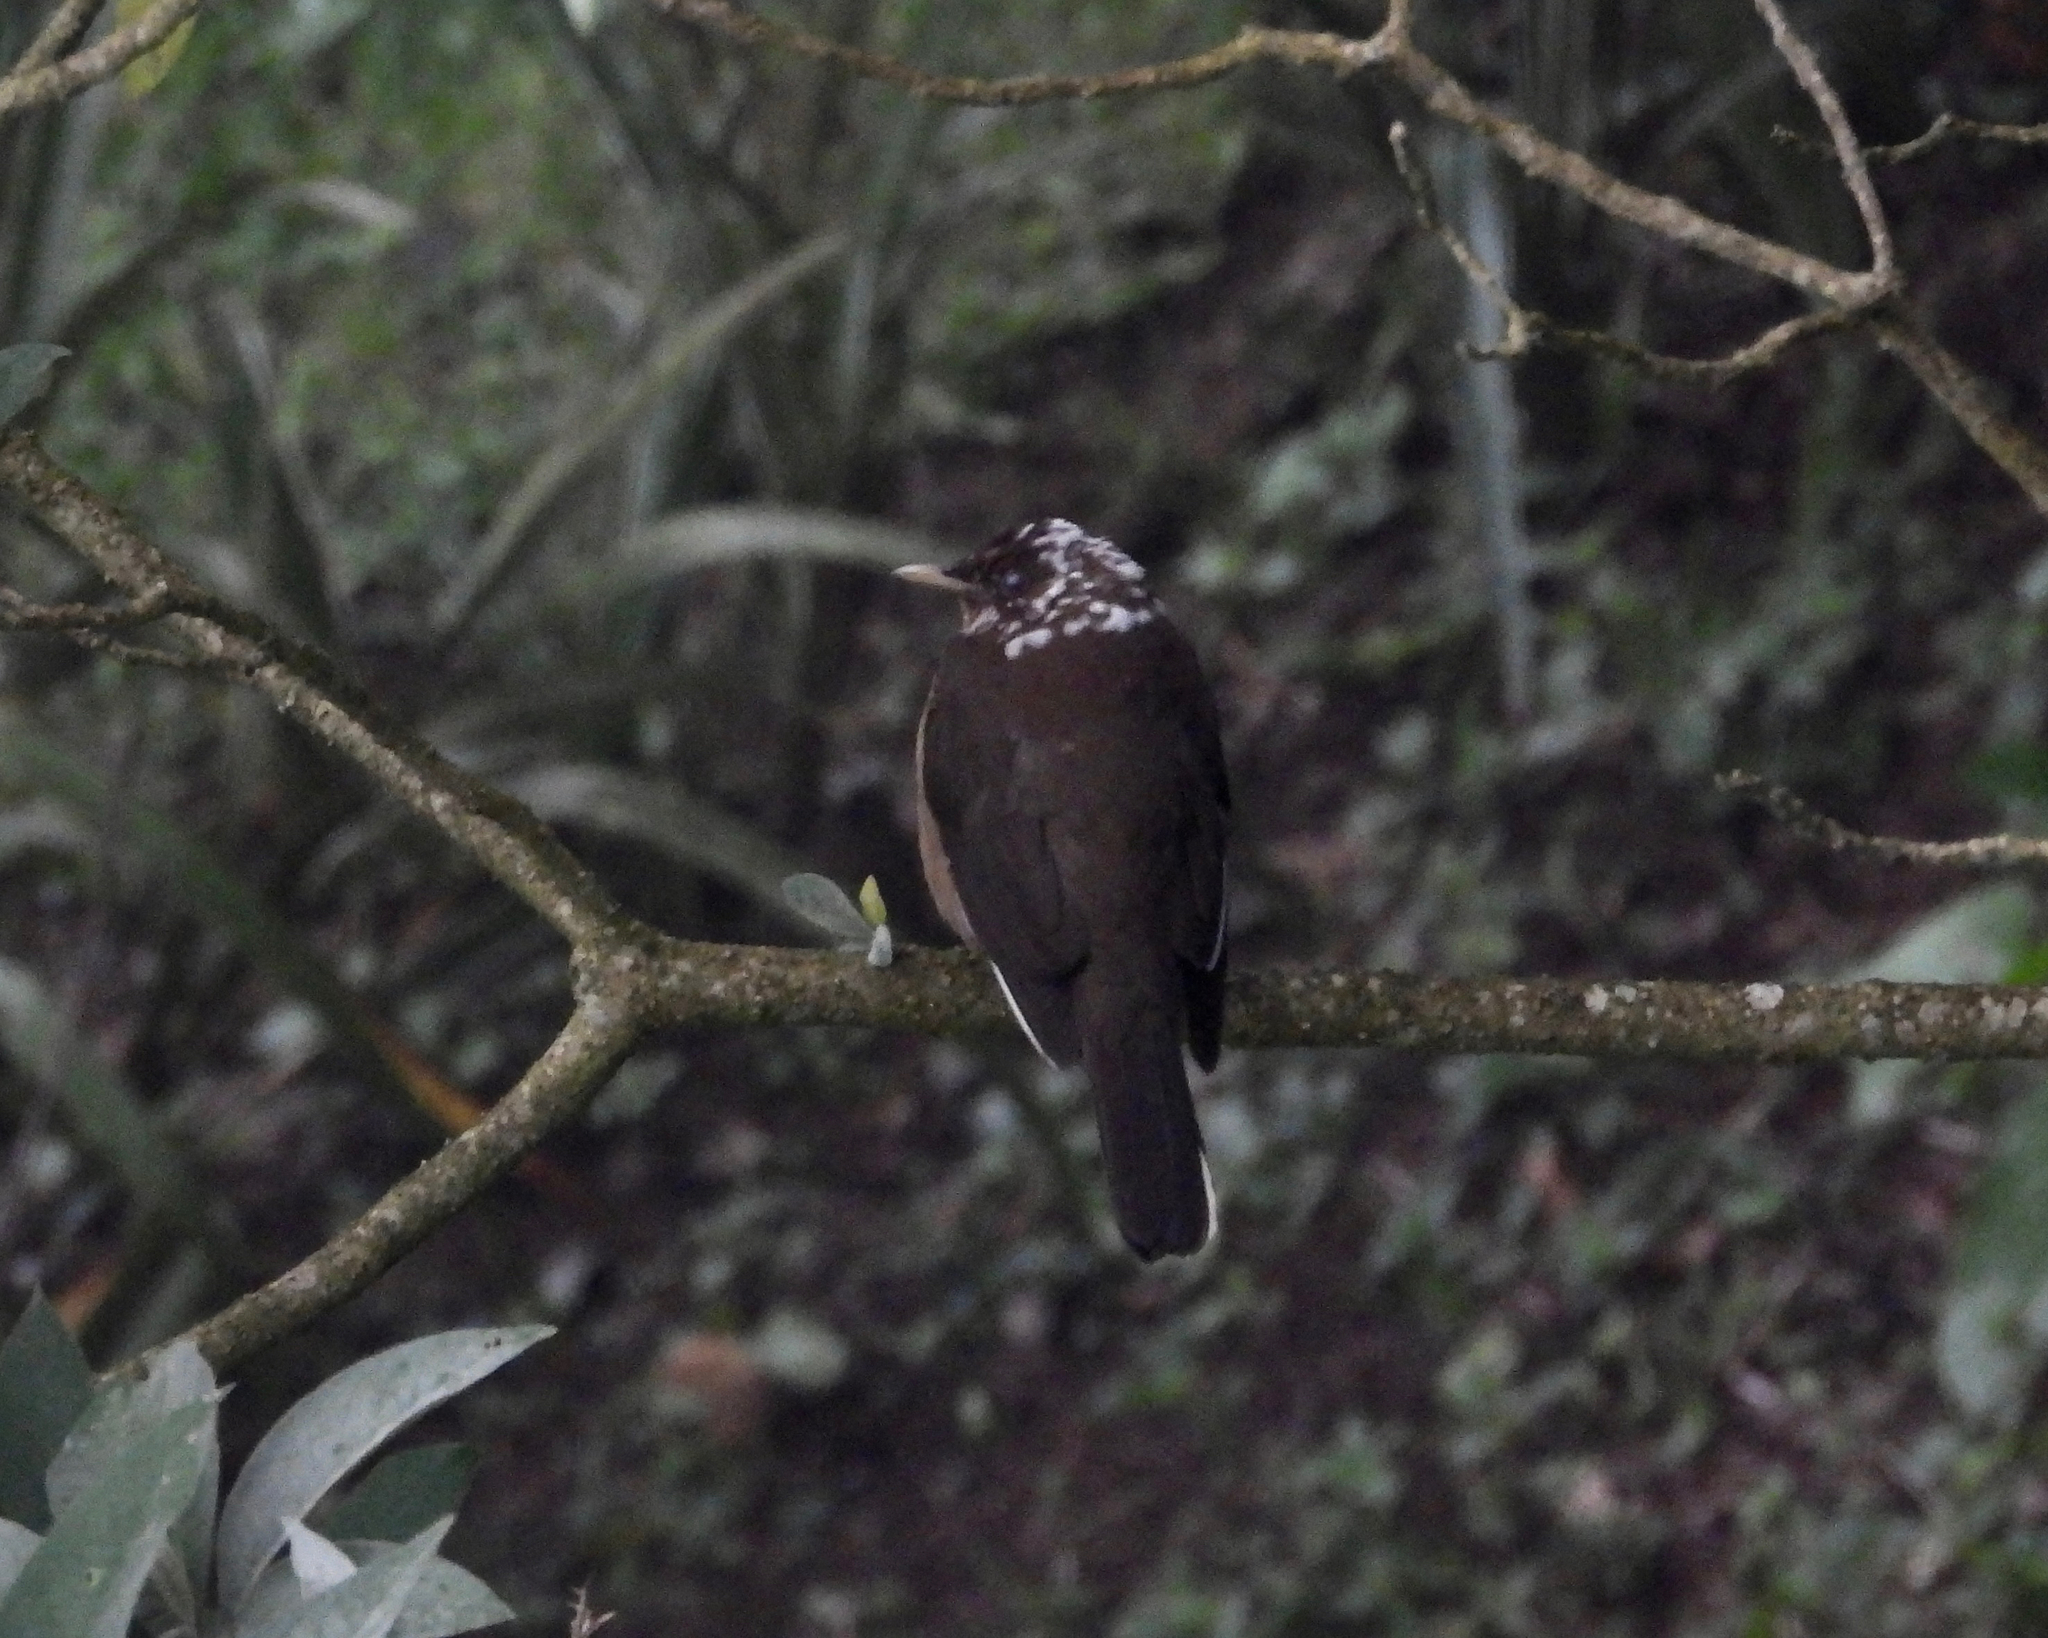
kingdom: Animalia
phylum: Chordata
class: Aves
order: Passeriformes
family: Turdidae
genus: Turdus
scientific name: Turdus grayi
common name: Clay-colored thrush
